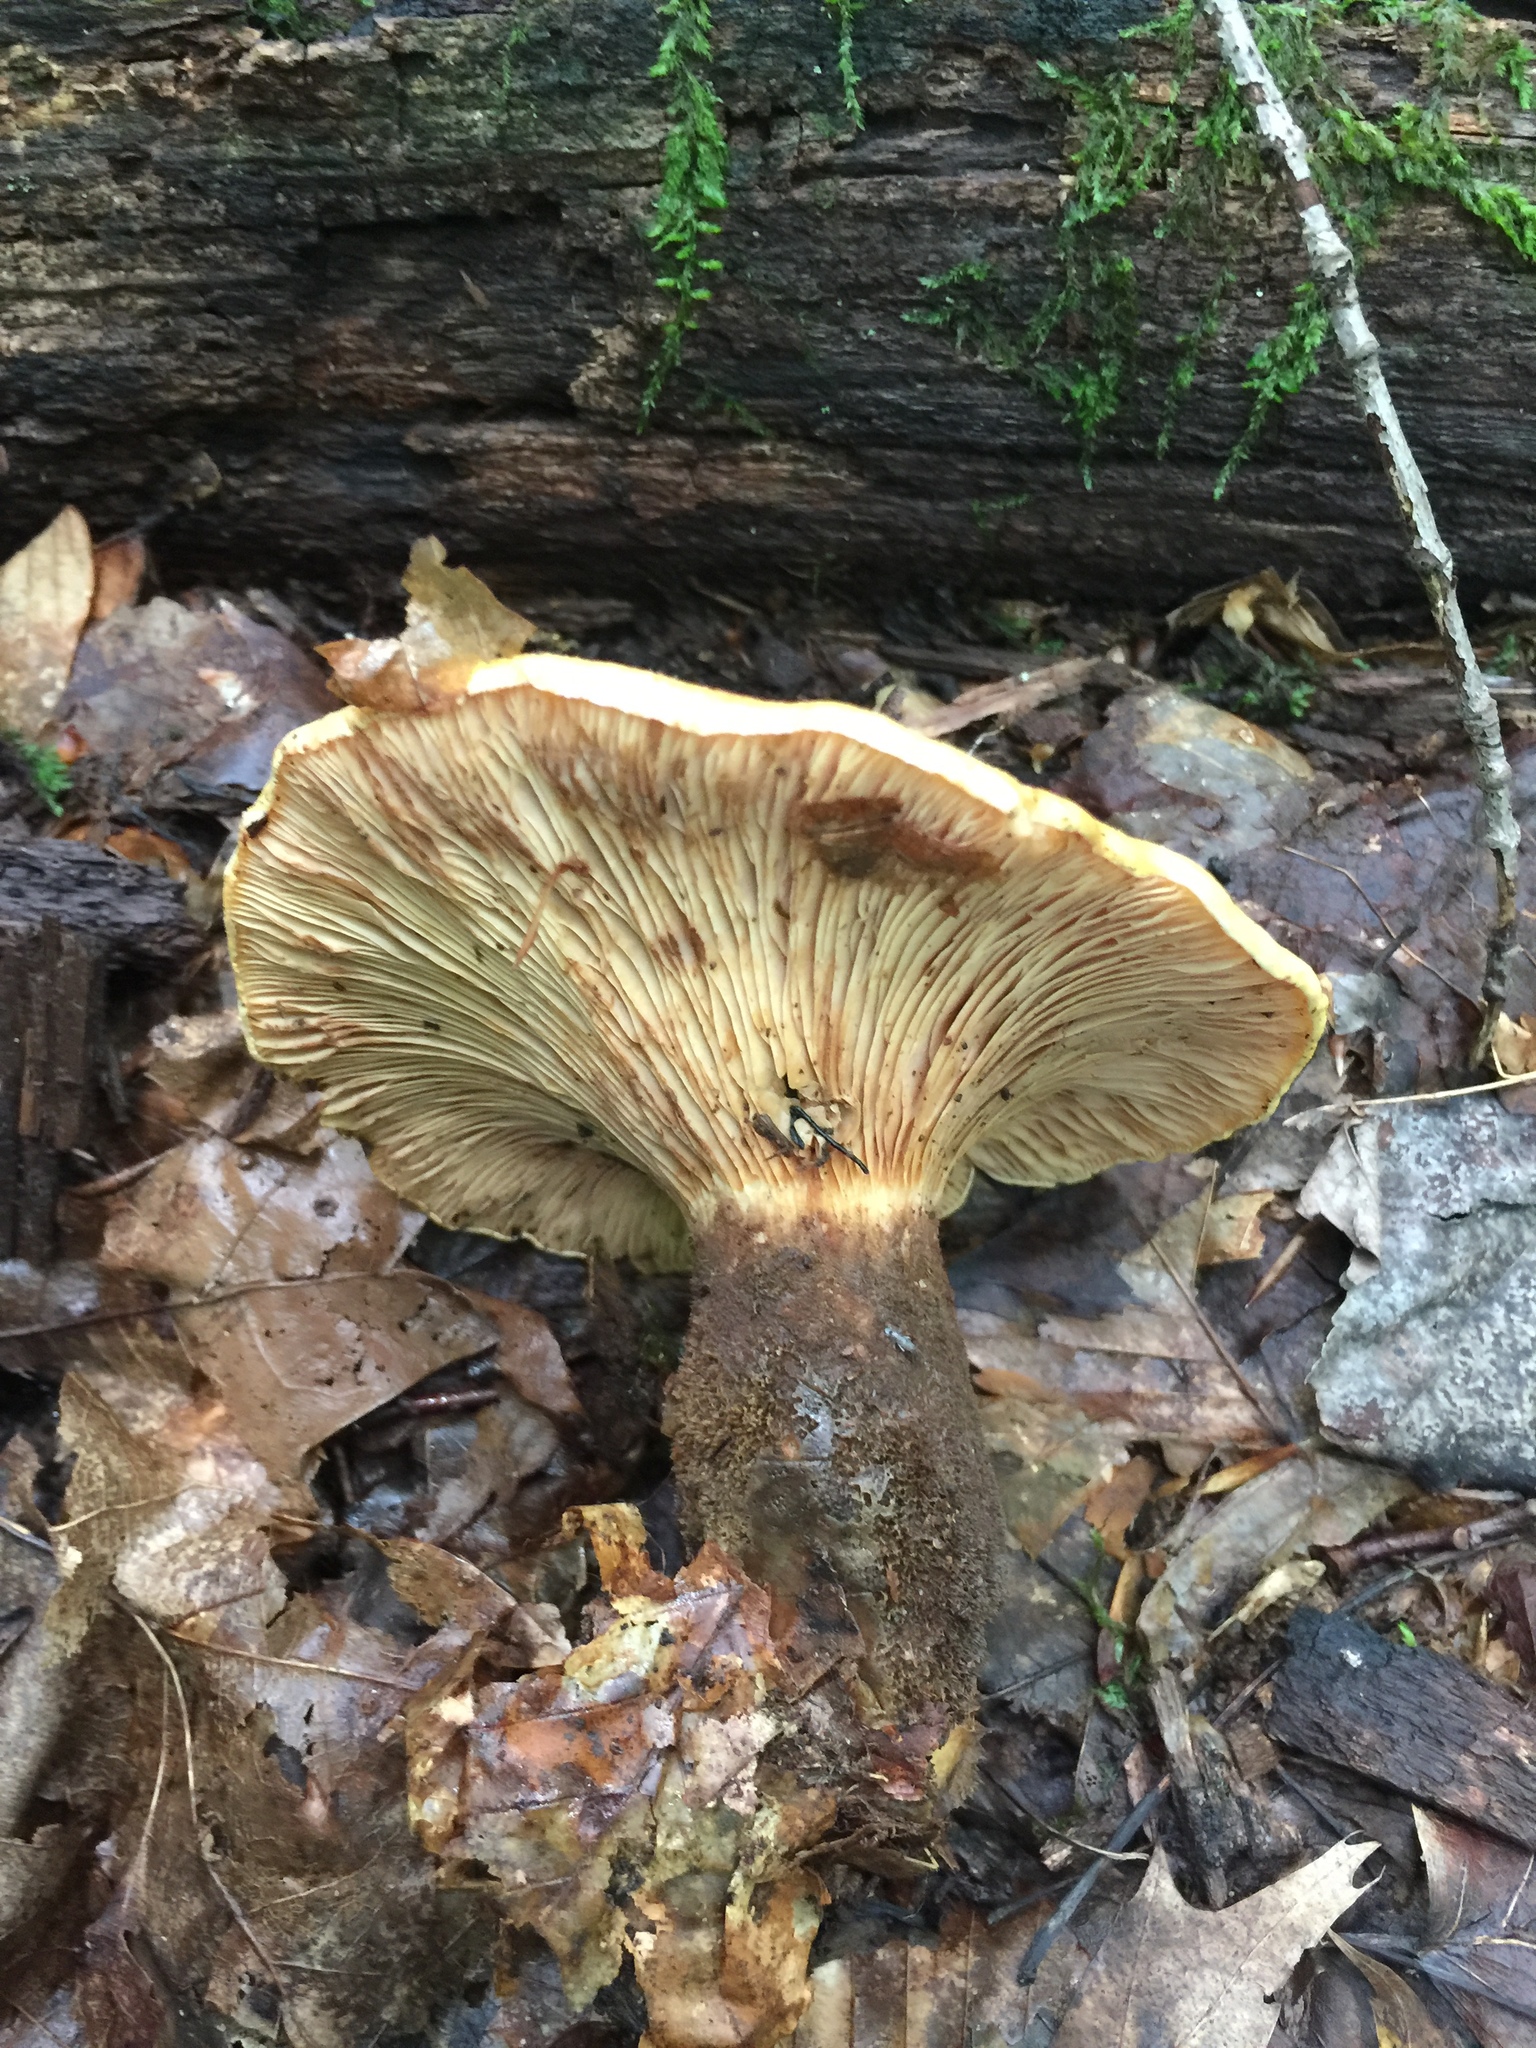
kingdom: Fungi
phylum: Basidiomycota
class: Agaricomycetes
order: Boletales
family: Tapinellaceae
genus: Tapinella
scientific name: Tapinella atrotomentosa
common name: Velvet rollrim
